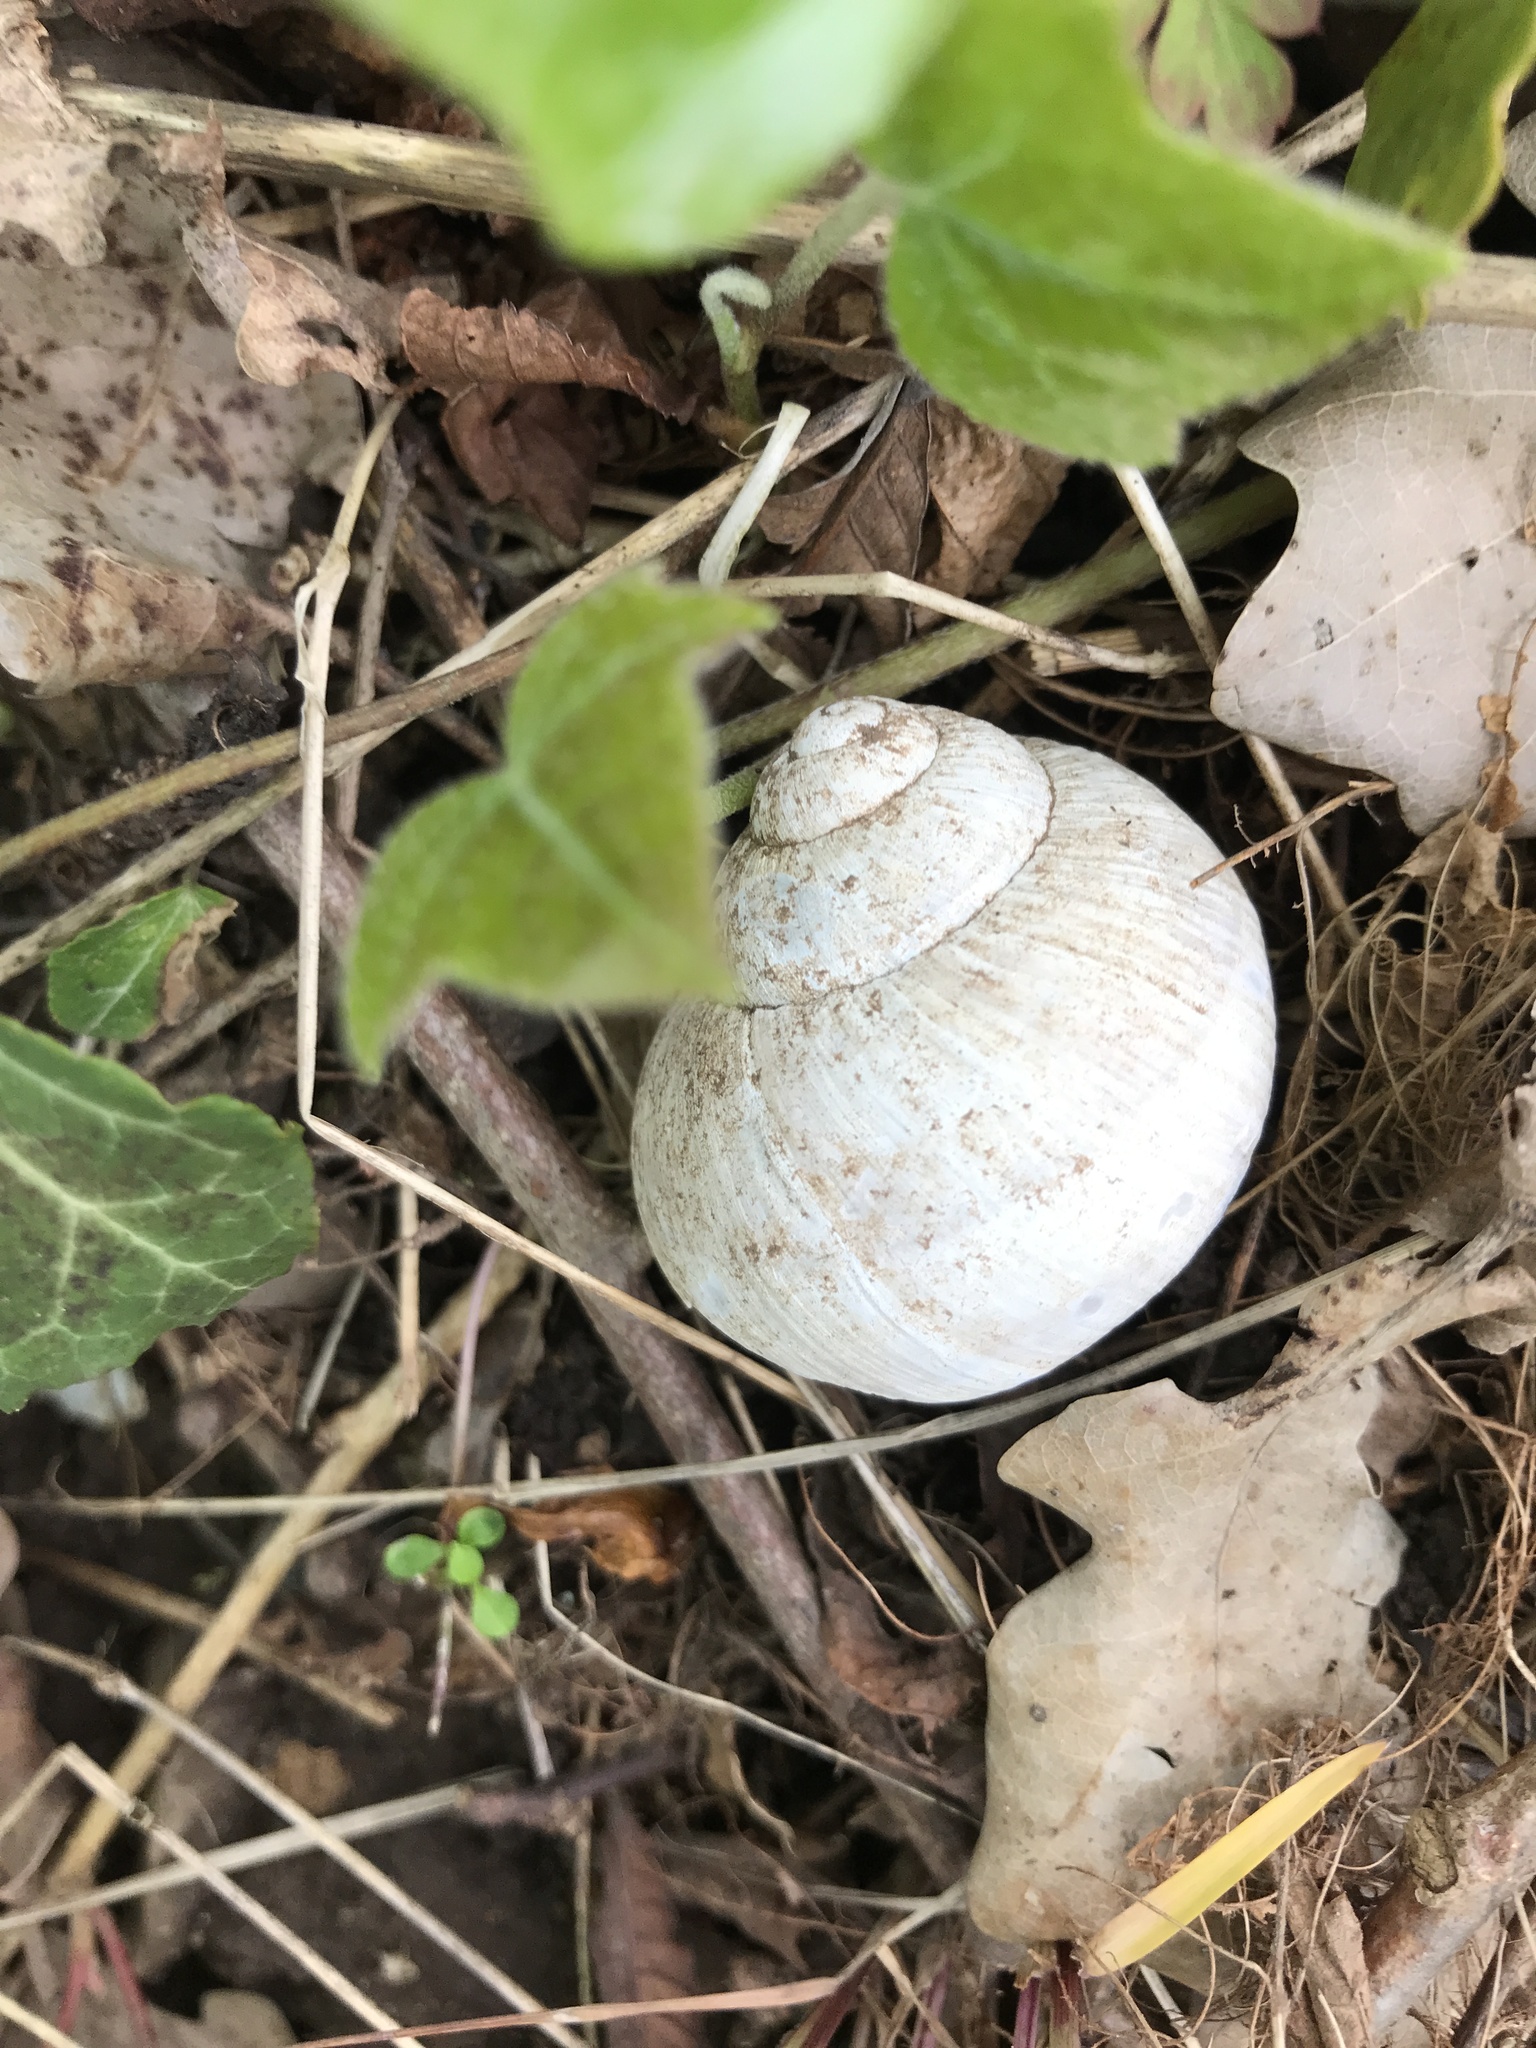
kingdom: Animalia
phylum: Mollusca
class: Gastropoda
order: Stylommatophora
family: Helicidae
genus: Helix
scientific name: Helix pomatia
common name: Roman snail
